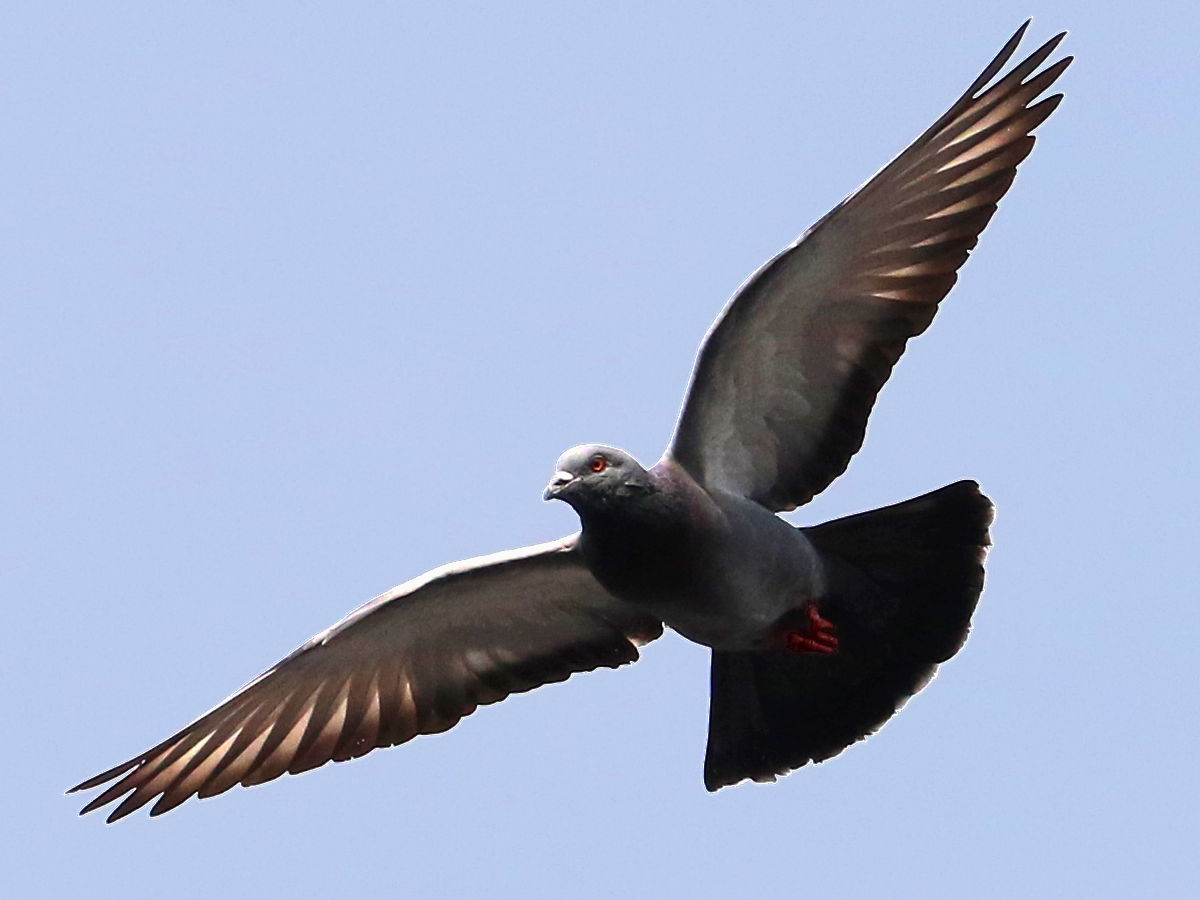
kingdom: Animalia
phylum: Chordata
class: Aves
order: Columbiformes
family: Columbidae
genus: Columba
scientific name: Columba livia
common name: Rock pigeon
